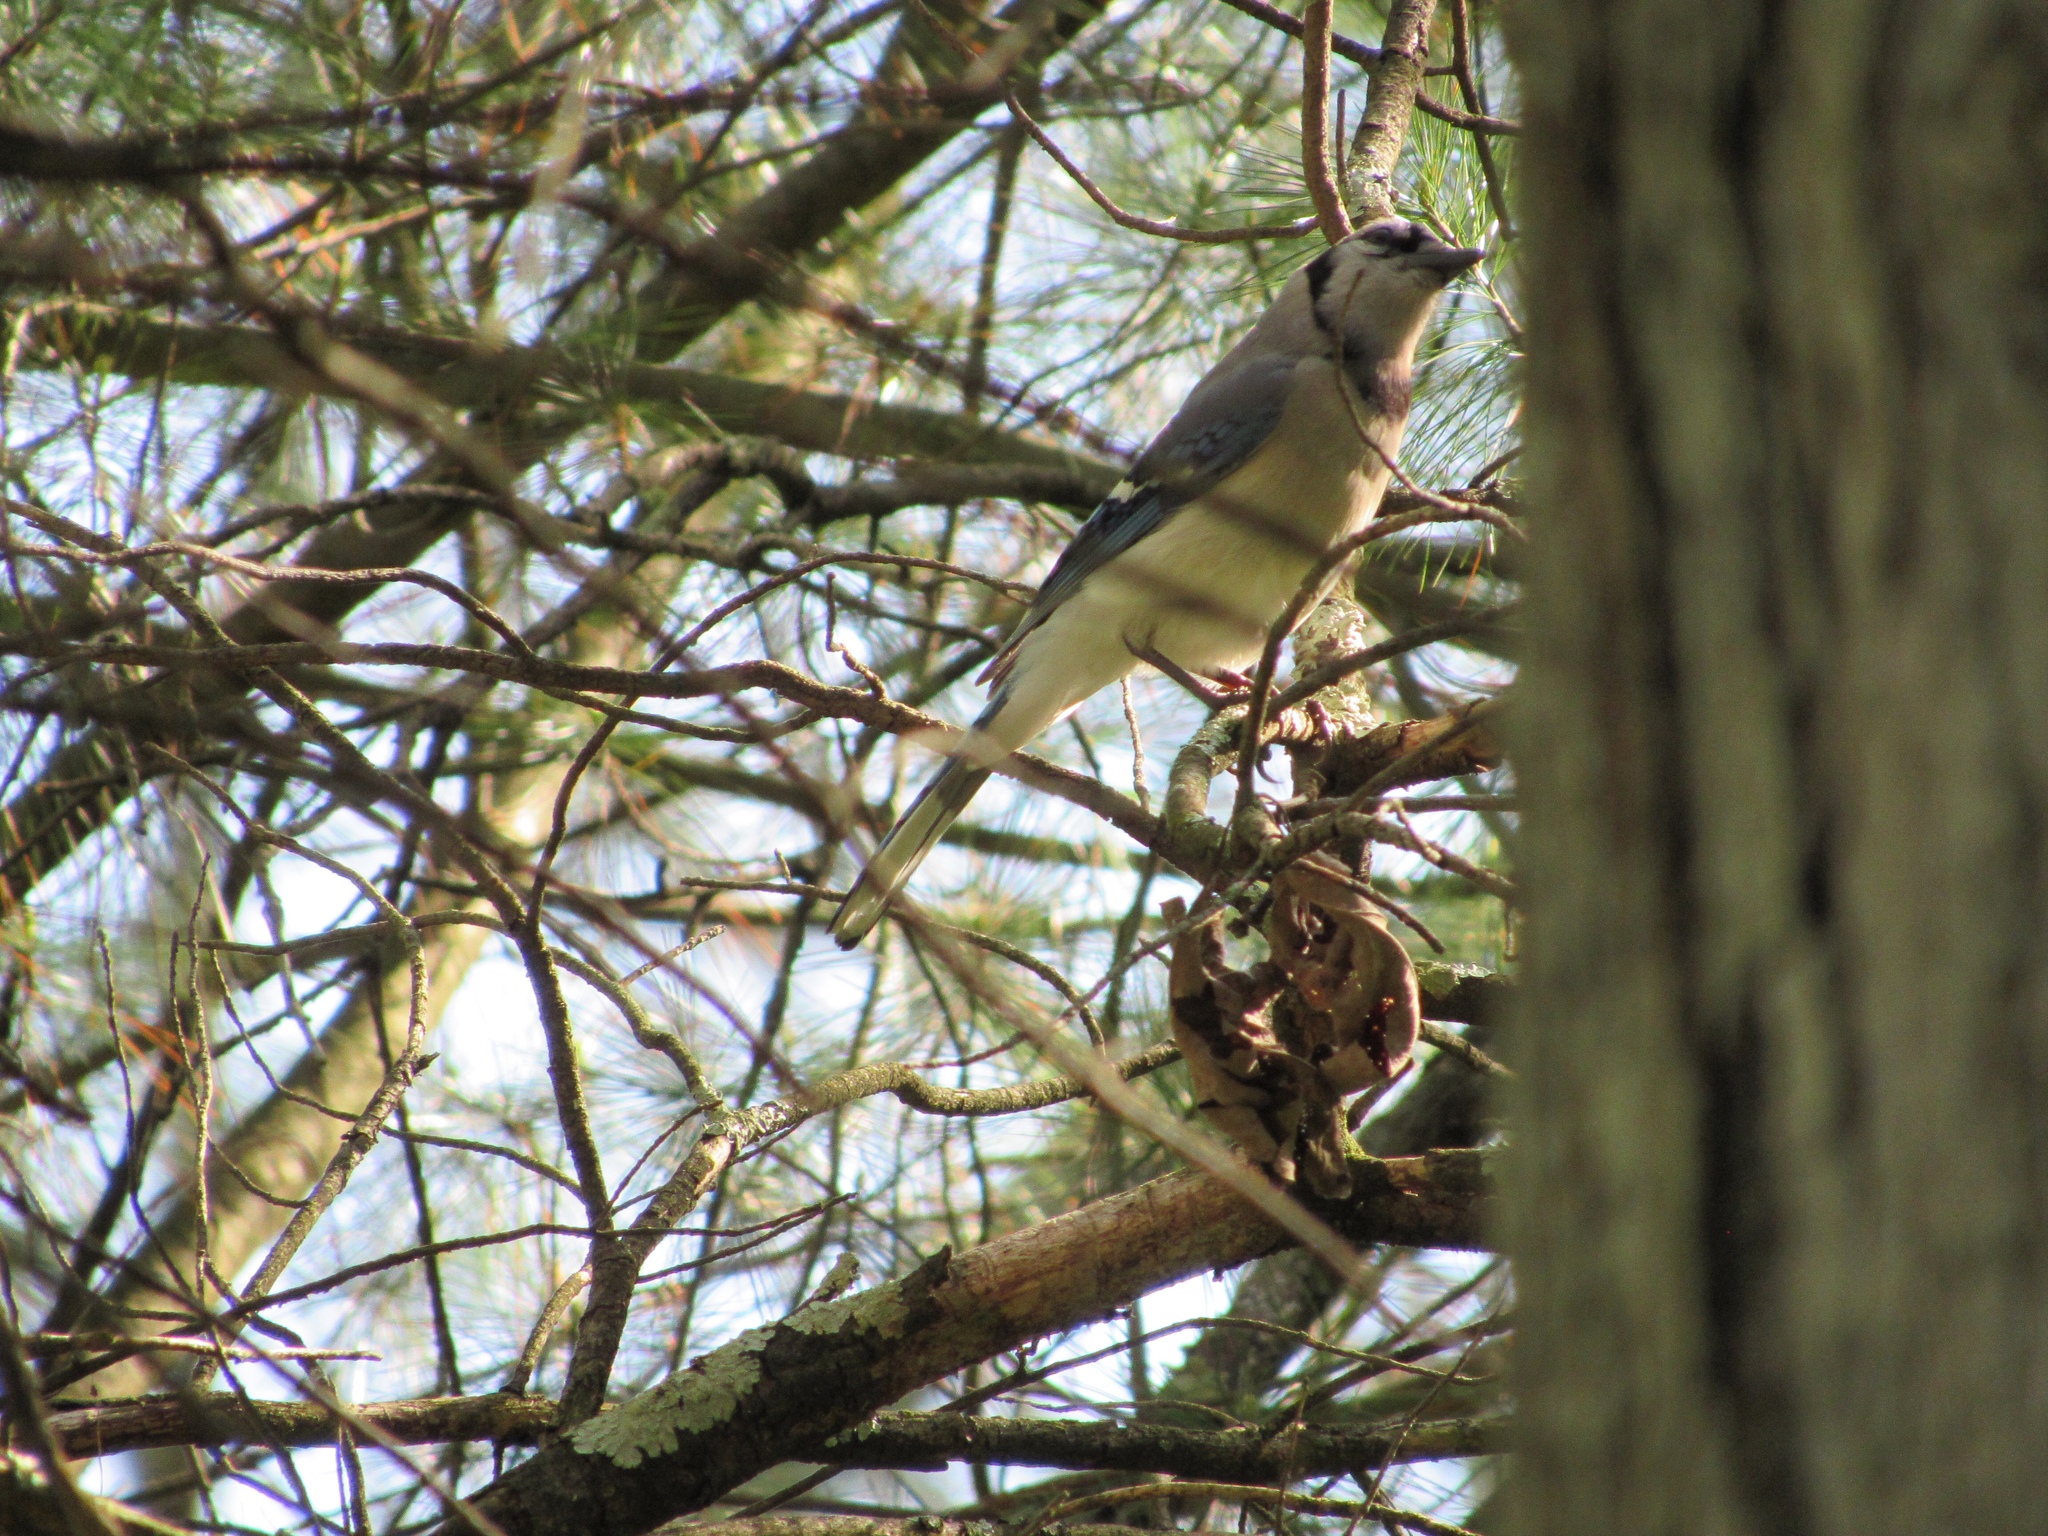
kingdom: Animalia
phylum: Chordata
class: Aves
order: Passeriformes
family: Corvidae
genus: Cyanocitta
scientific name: Cyanocitta cristata
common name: Blue jay
